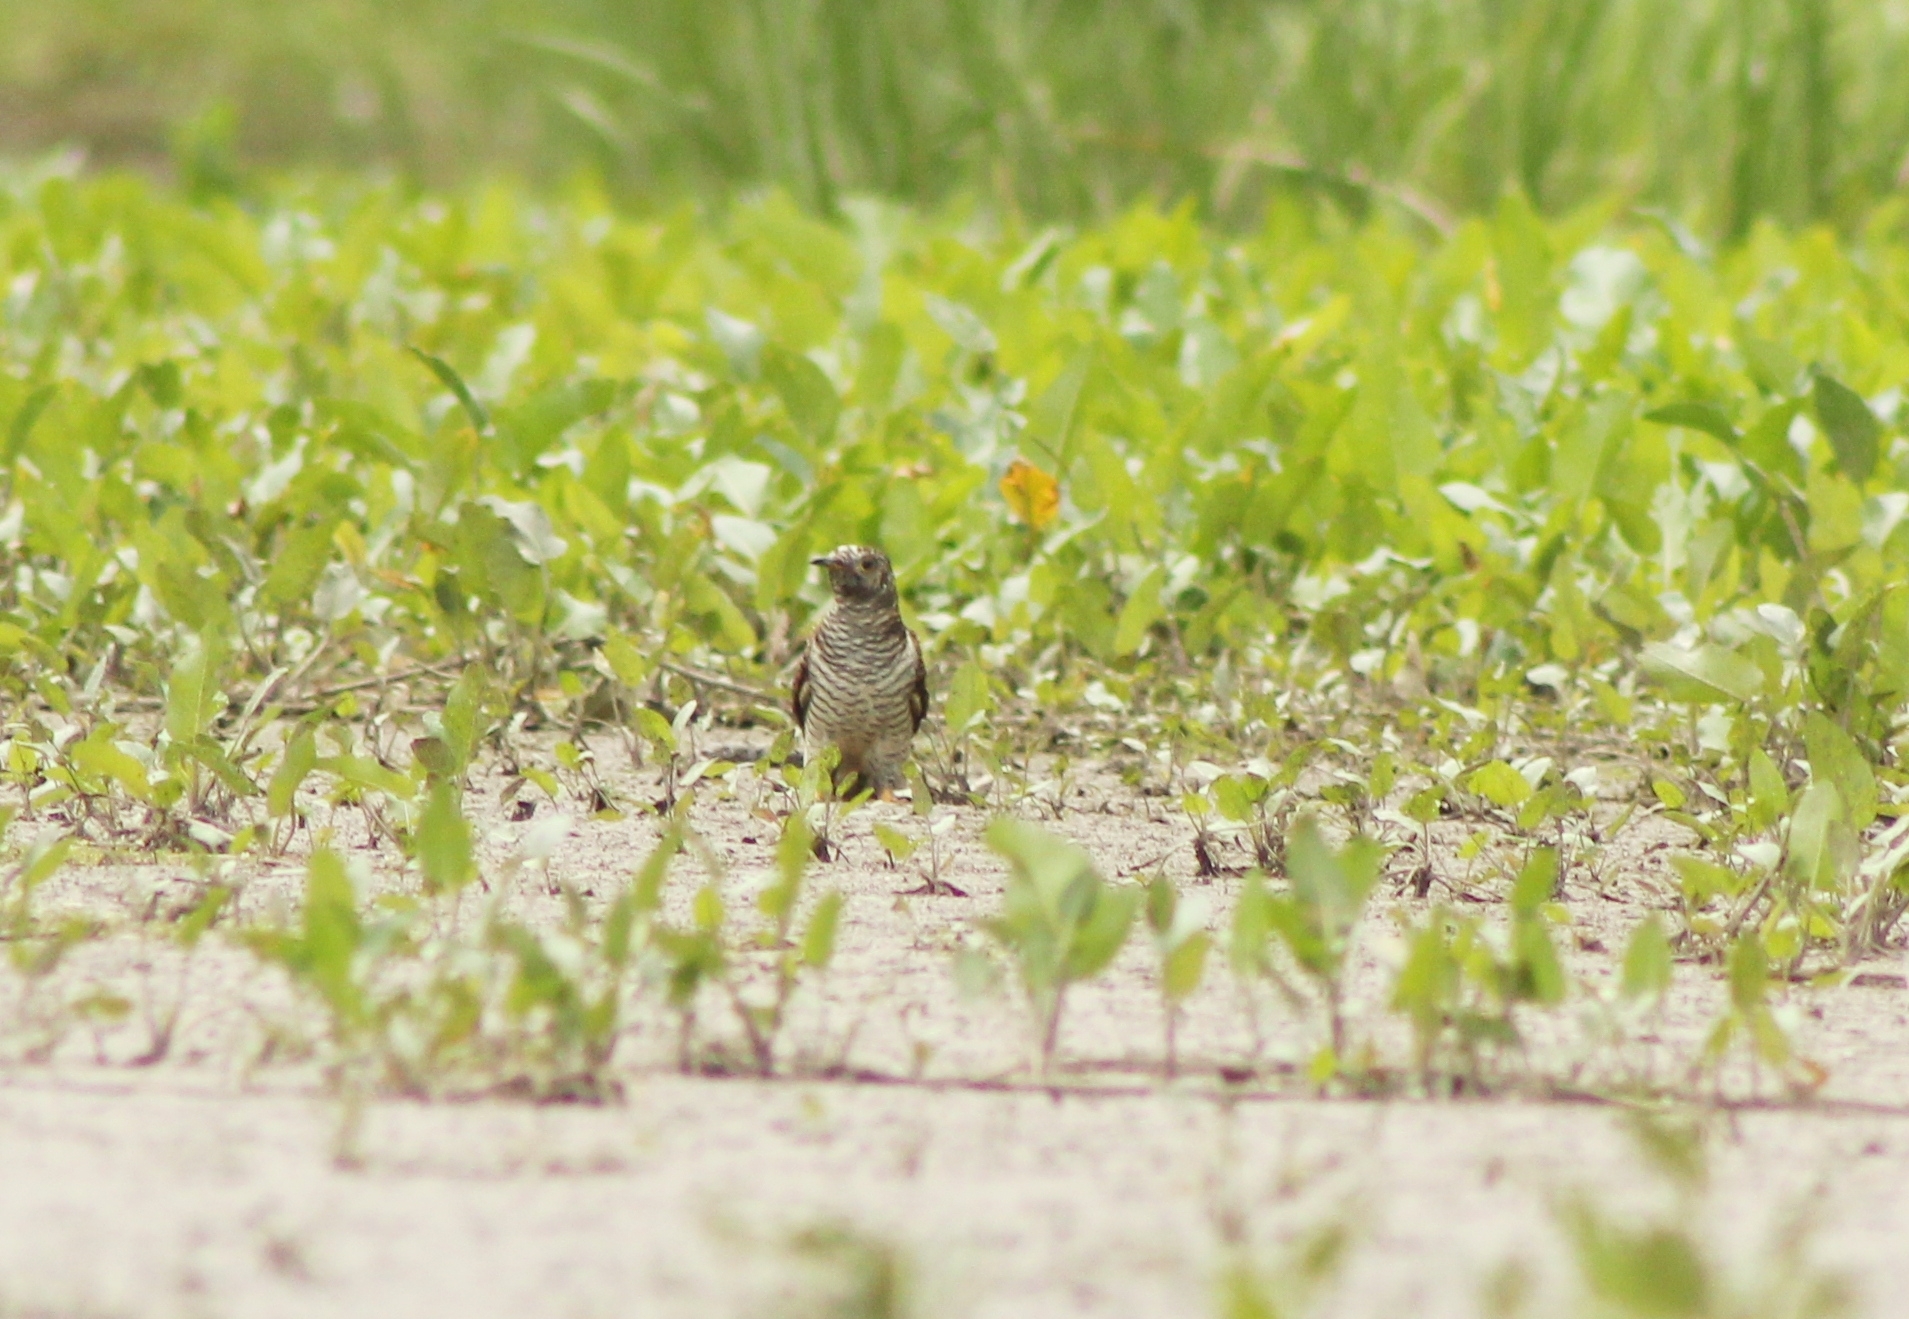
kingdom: Animalia
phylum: Chordata
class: Aves
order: Cuculiformes
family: Cuculidae
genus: Cuculus
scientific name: Cuculus canorus
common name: Common cuckoo
